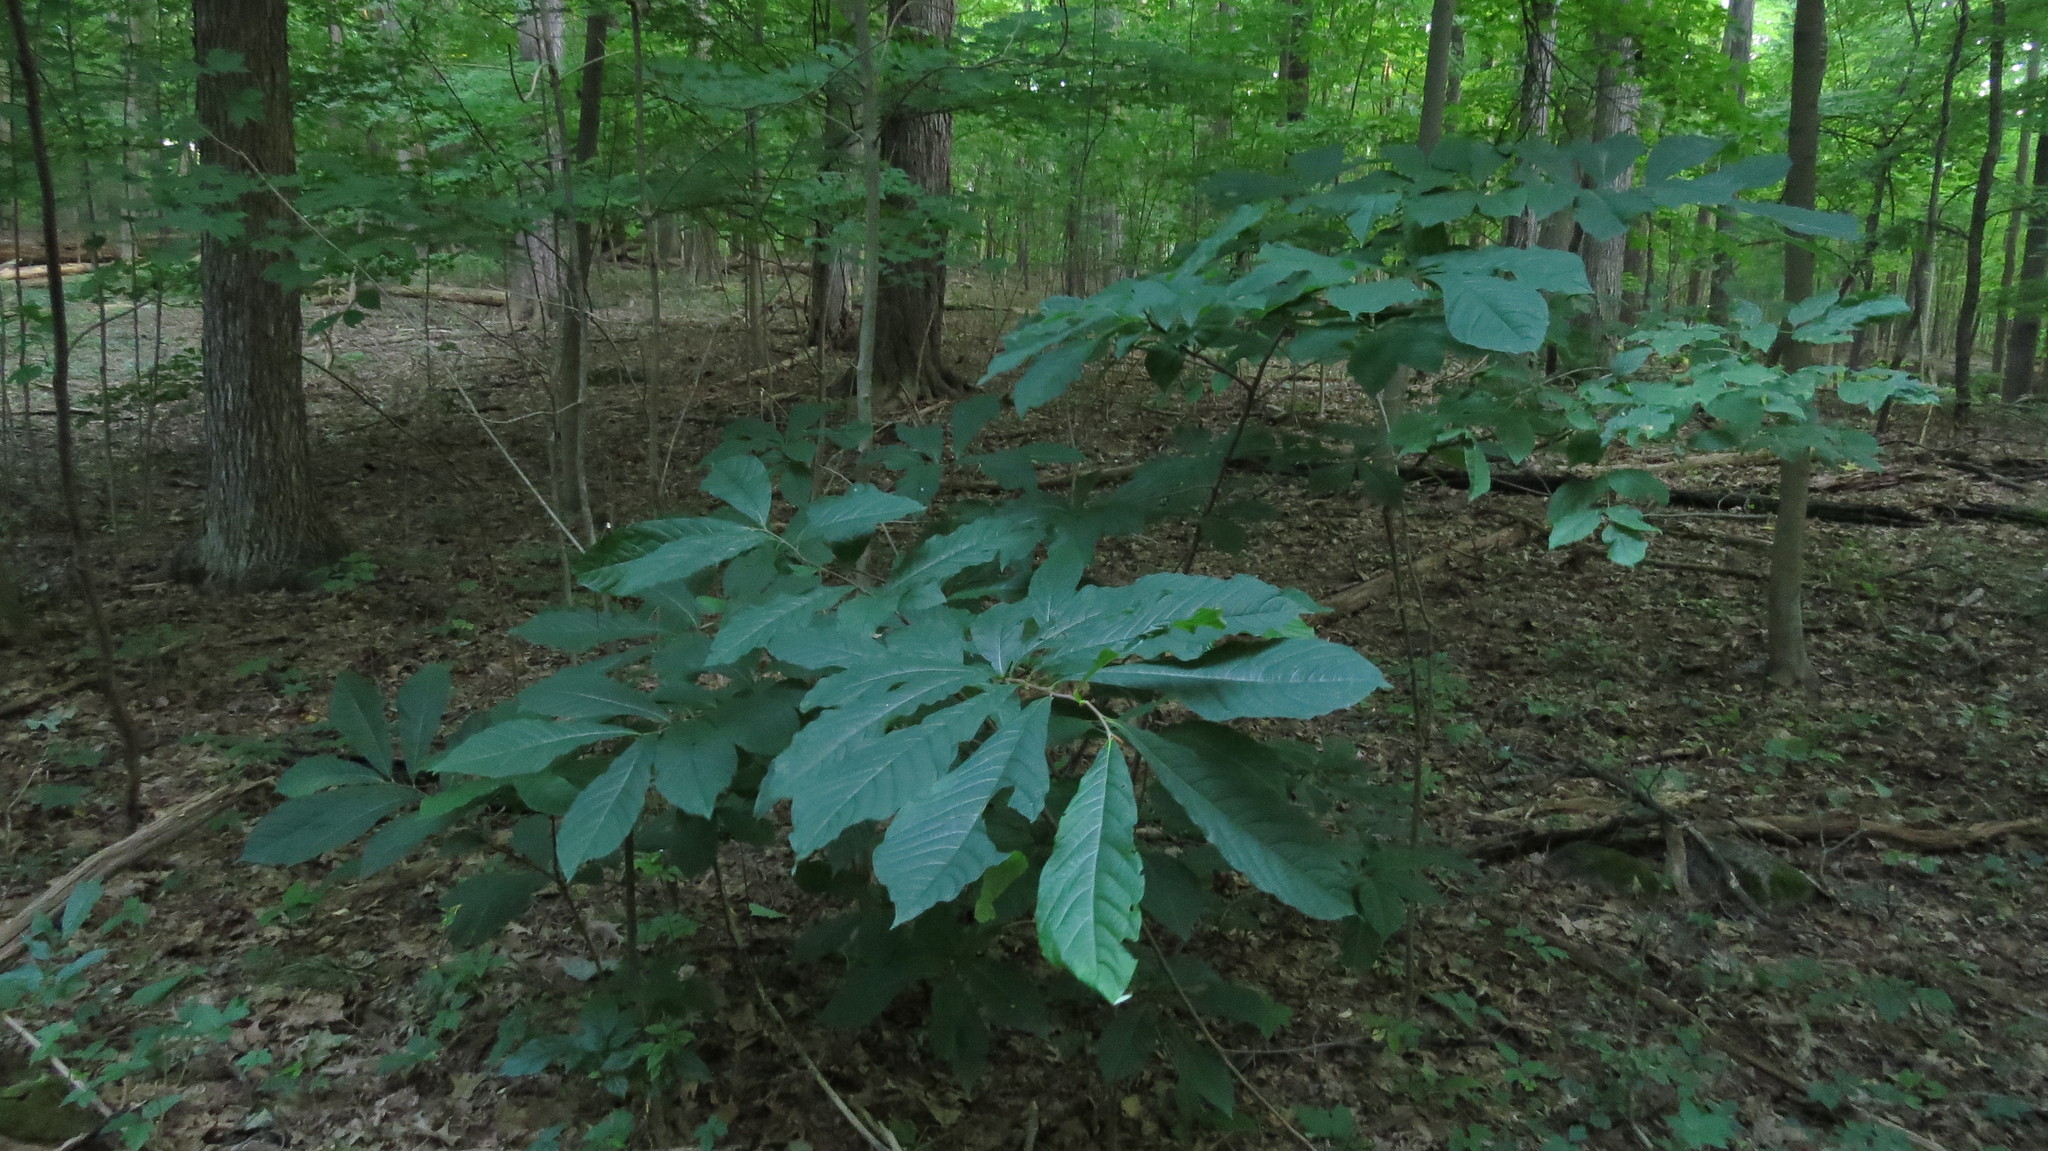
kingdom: Plantae
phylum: Tracheophyta
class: Magnoliopsida
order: Magnoliales
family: Annonaceae
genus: Asimina
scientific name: Asimina triloba
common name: Dog-banana
